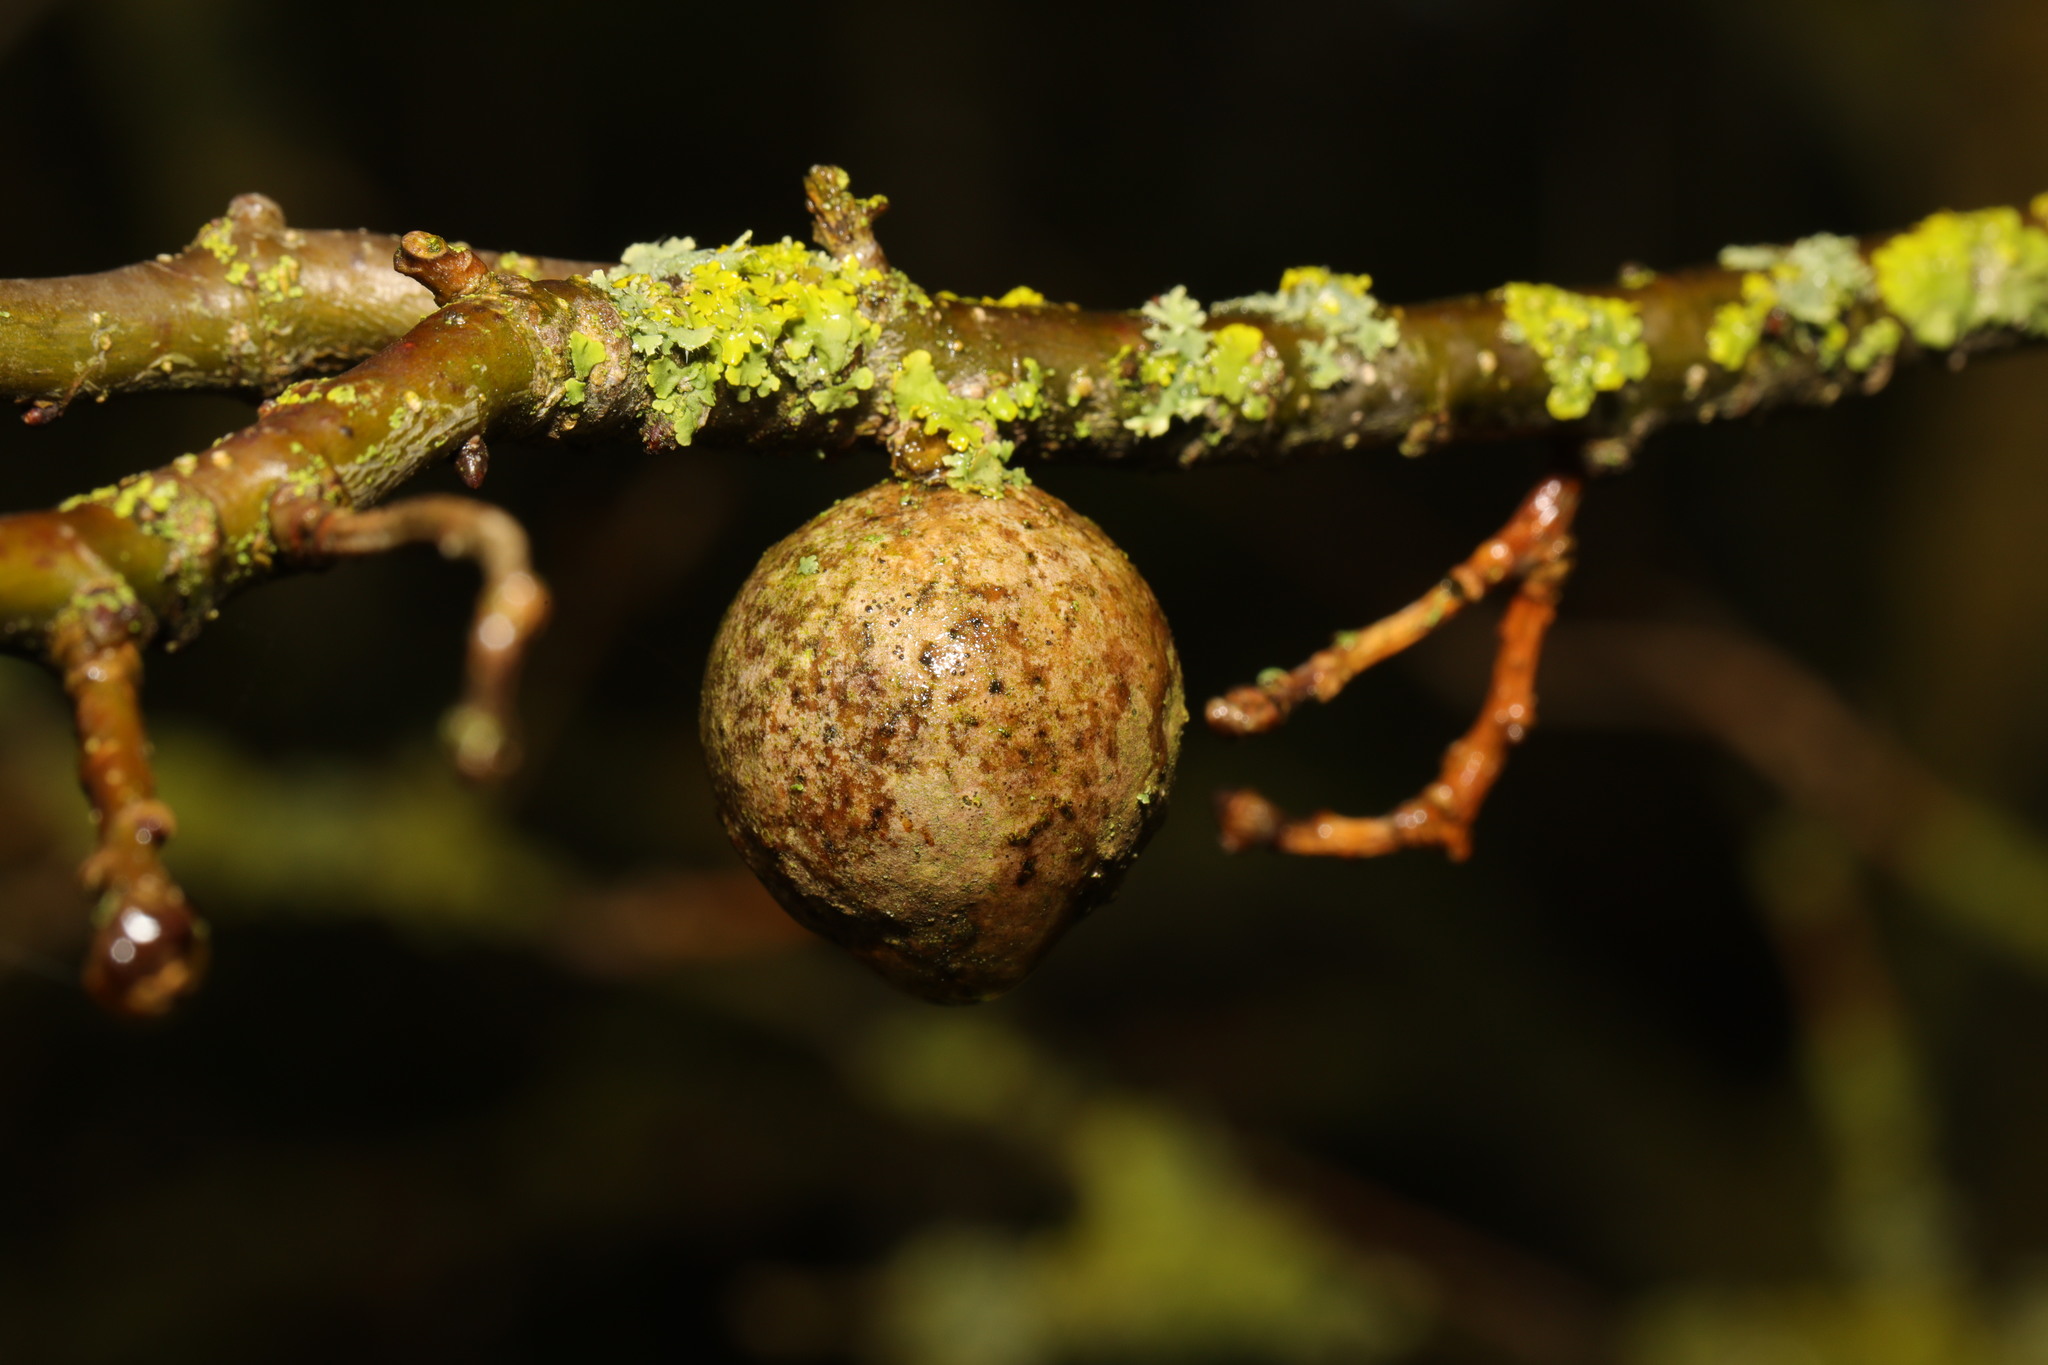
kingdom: Animalia
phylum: Arthropoda
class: Insecta
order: Hymenoptera
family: Cynipidae
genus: Andricus
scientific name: Andricus kollari
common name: Marble gall
